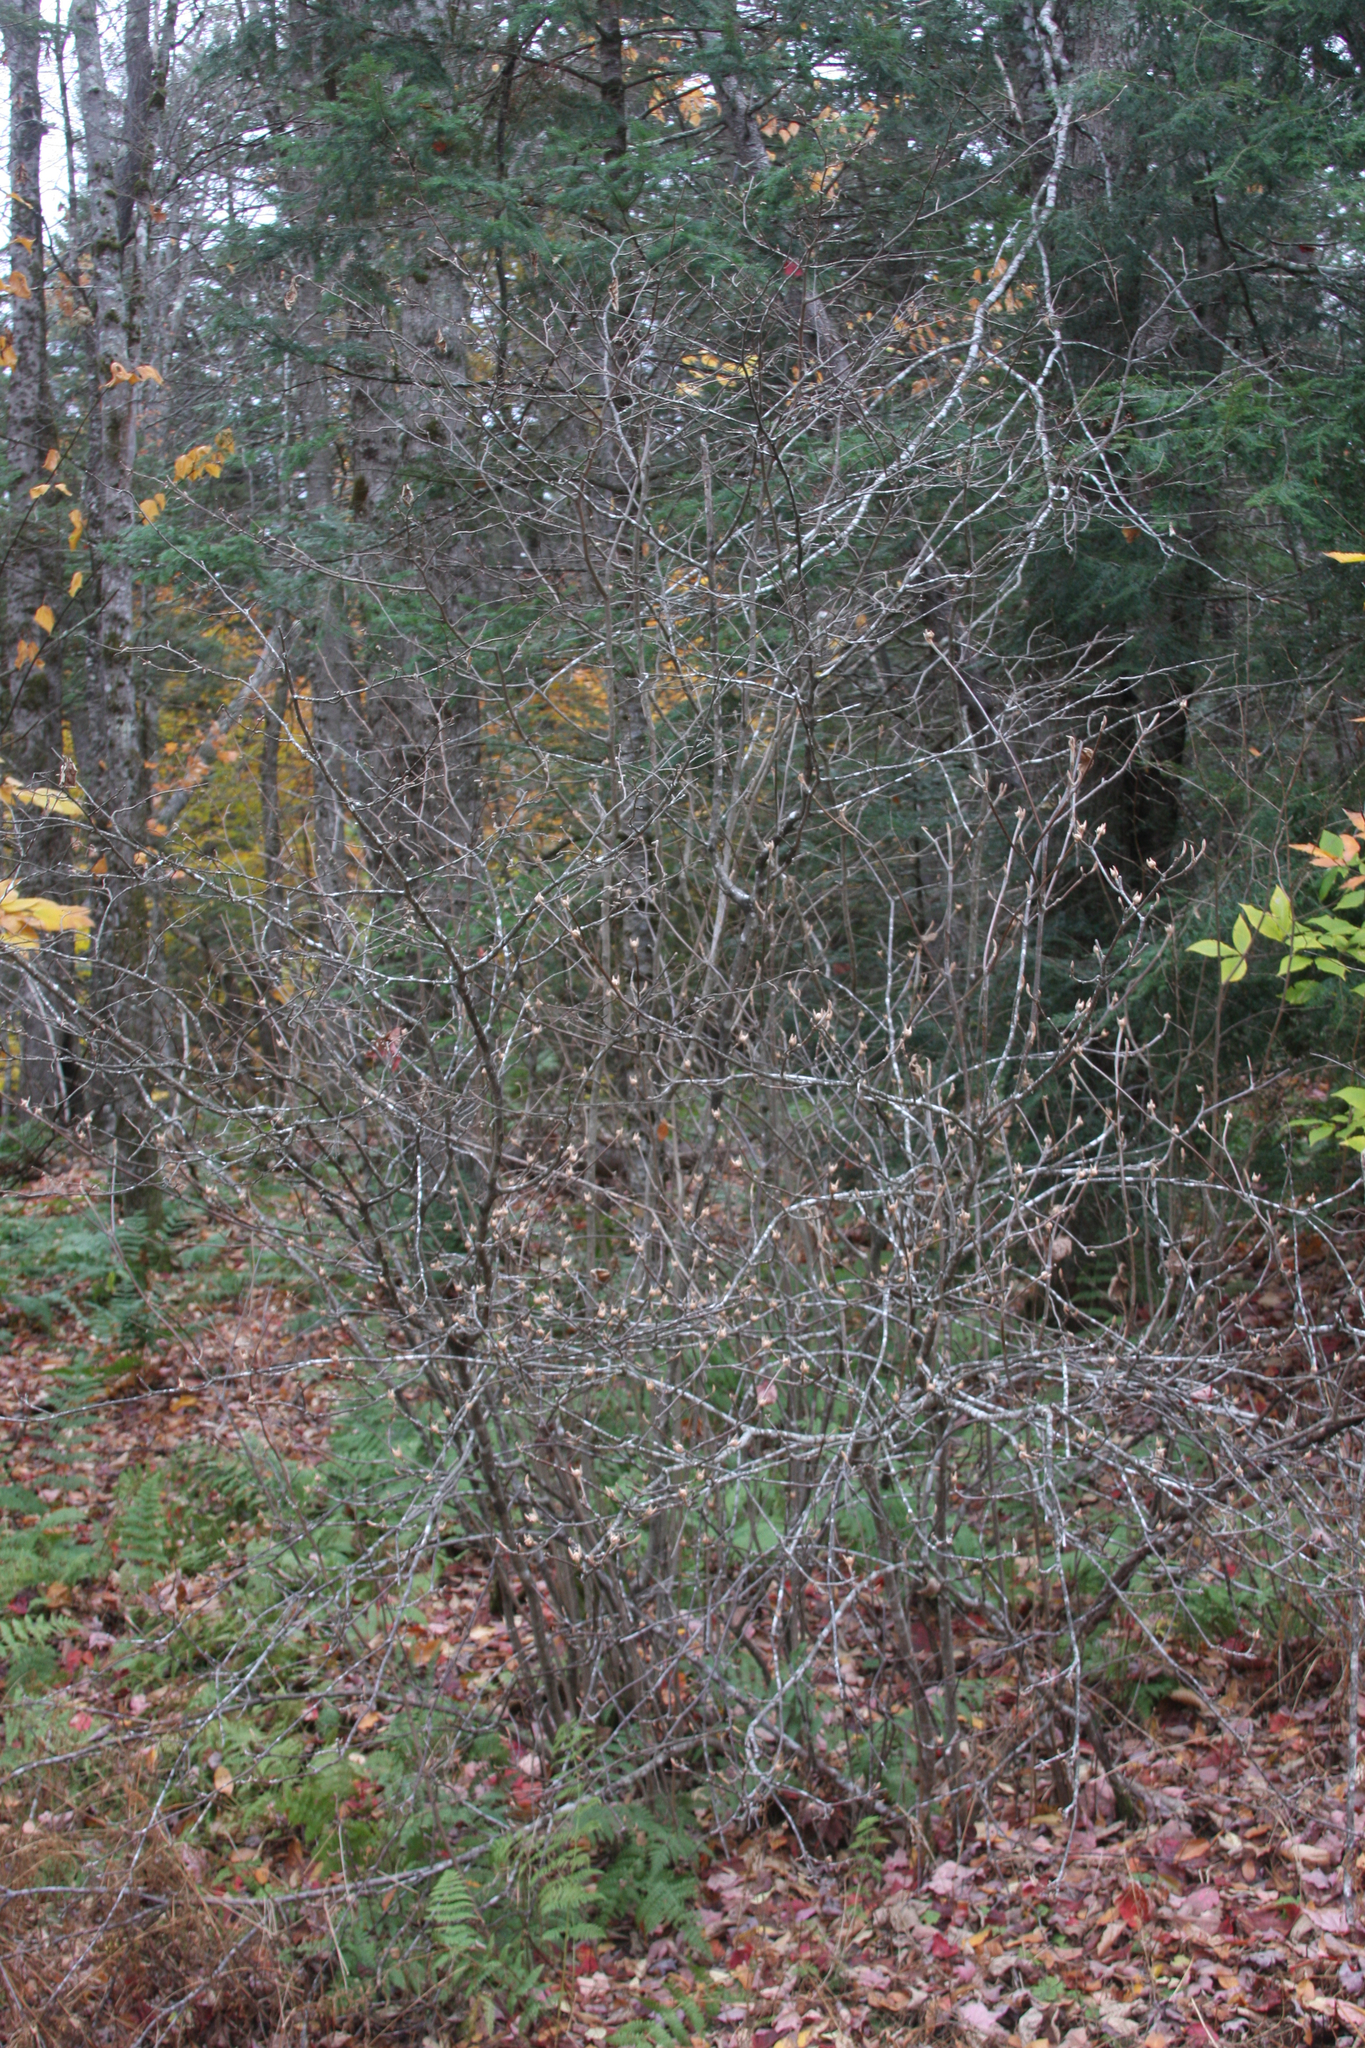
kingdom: Plantae
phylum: Tracheophyta
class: Magnoliopsida
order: Dipsacales
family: Viburnaceae
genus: Viburnum
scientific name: Viburnum lantanoides
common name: Hobblebush
